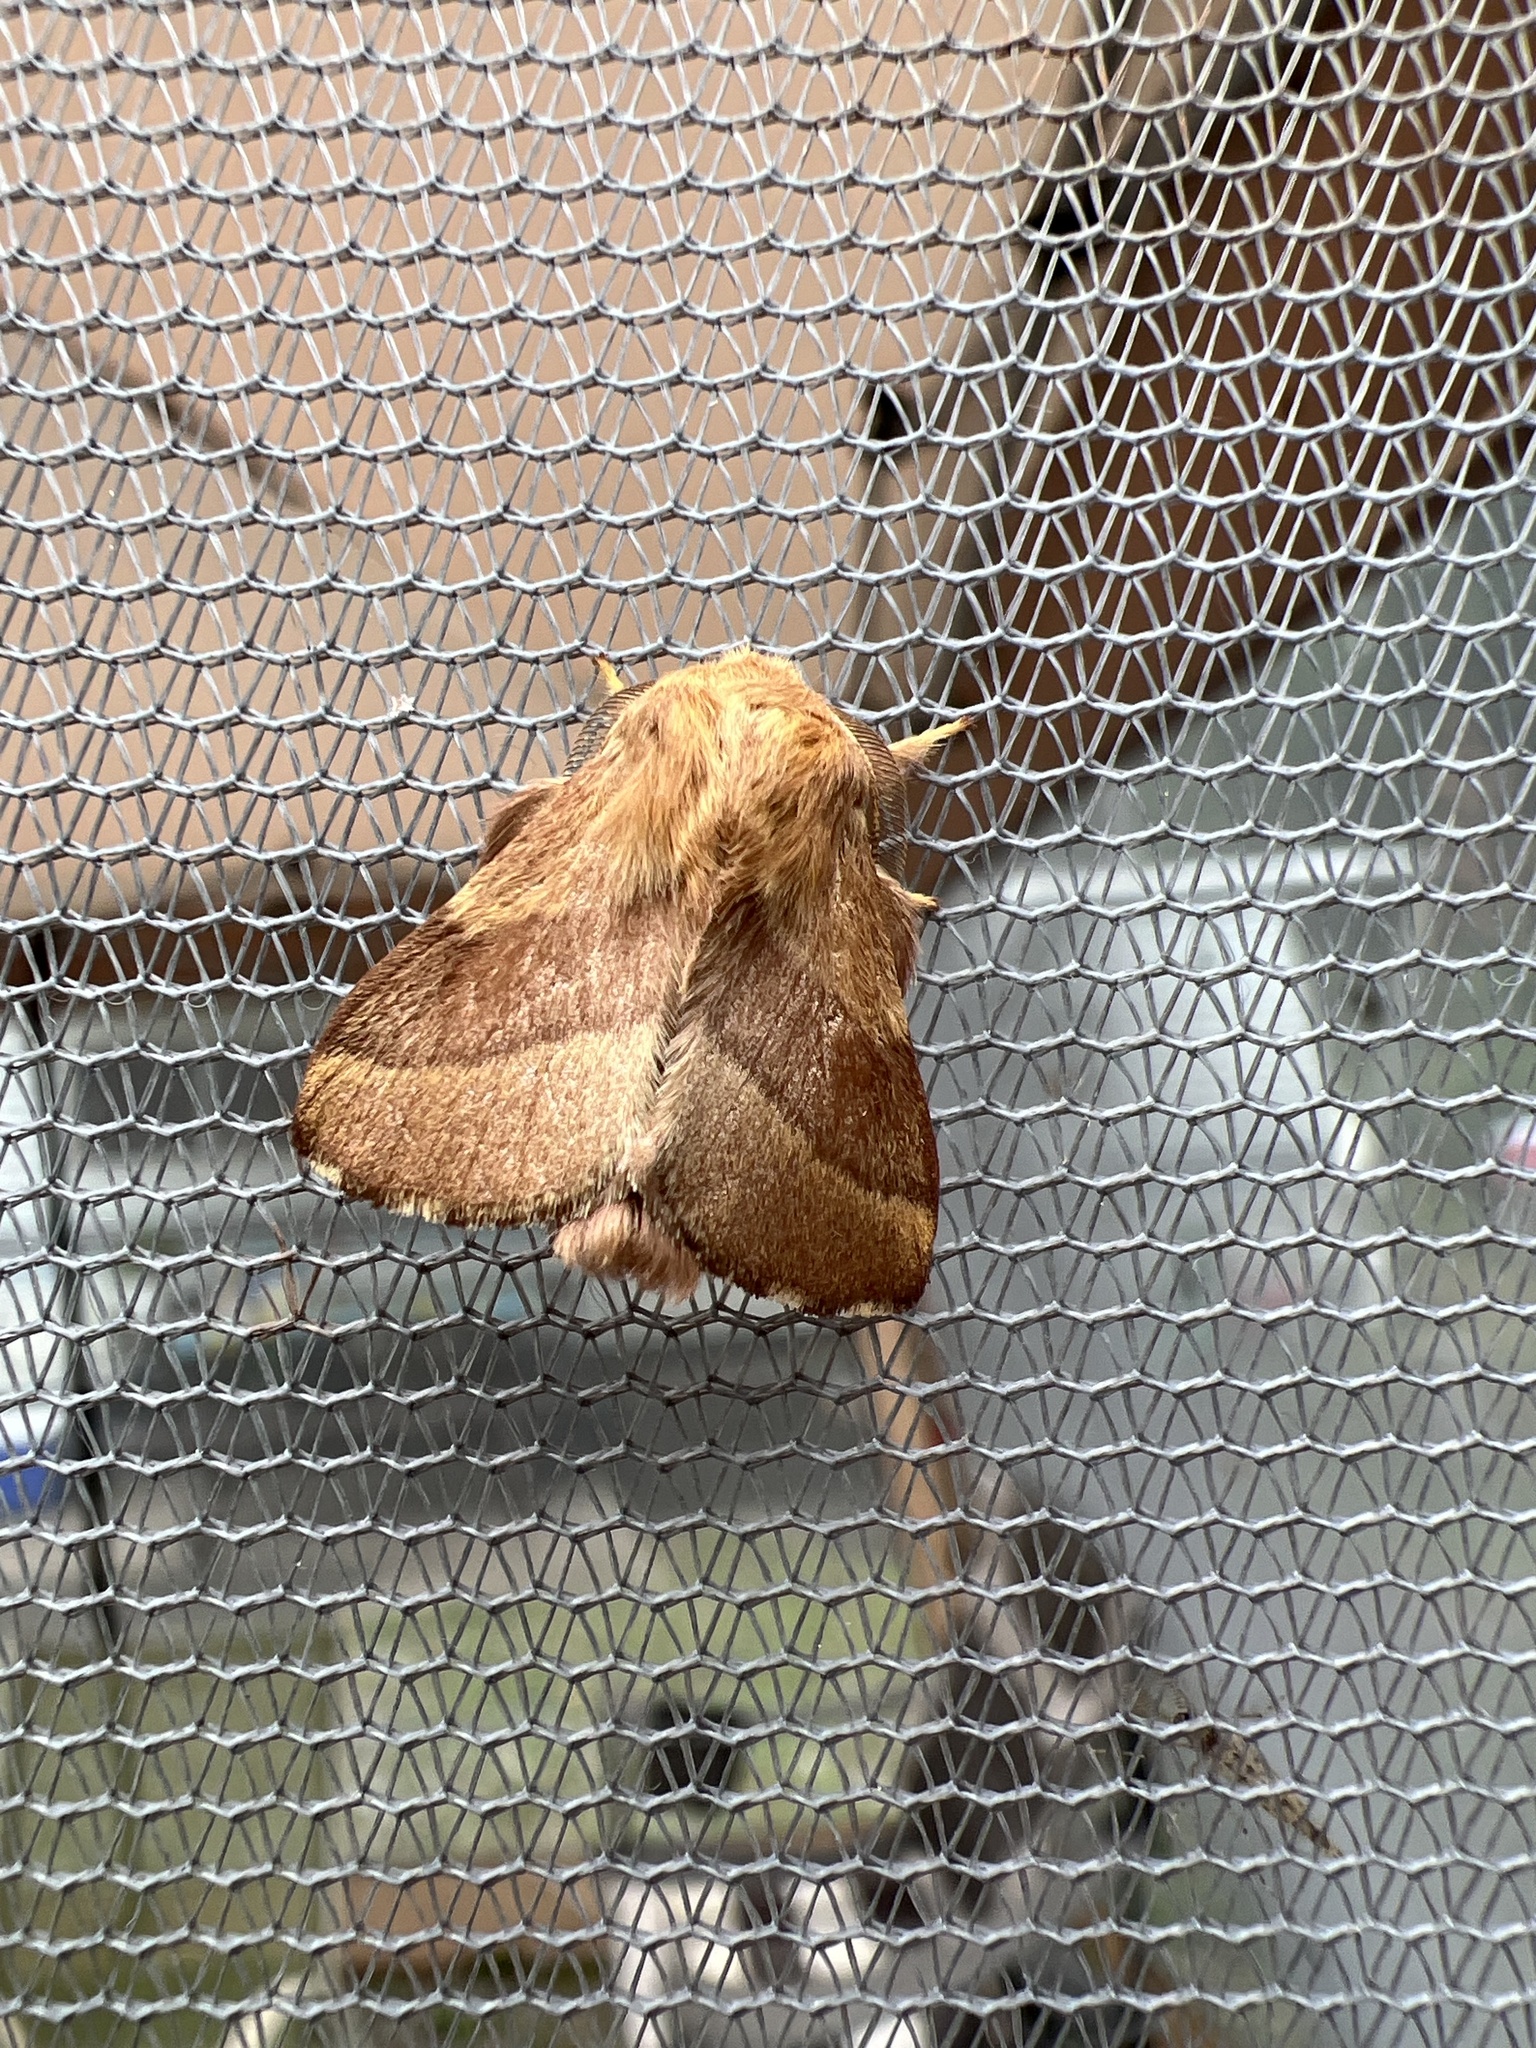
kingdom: Animalia
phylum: Arthropoda
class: Insecta
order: Lepidoptera
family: Lasiocampidae
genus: Malacosoma
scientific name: Malacosoma disstria
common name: Forest tent caterpillar
